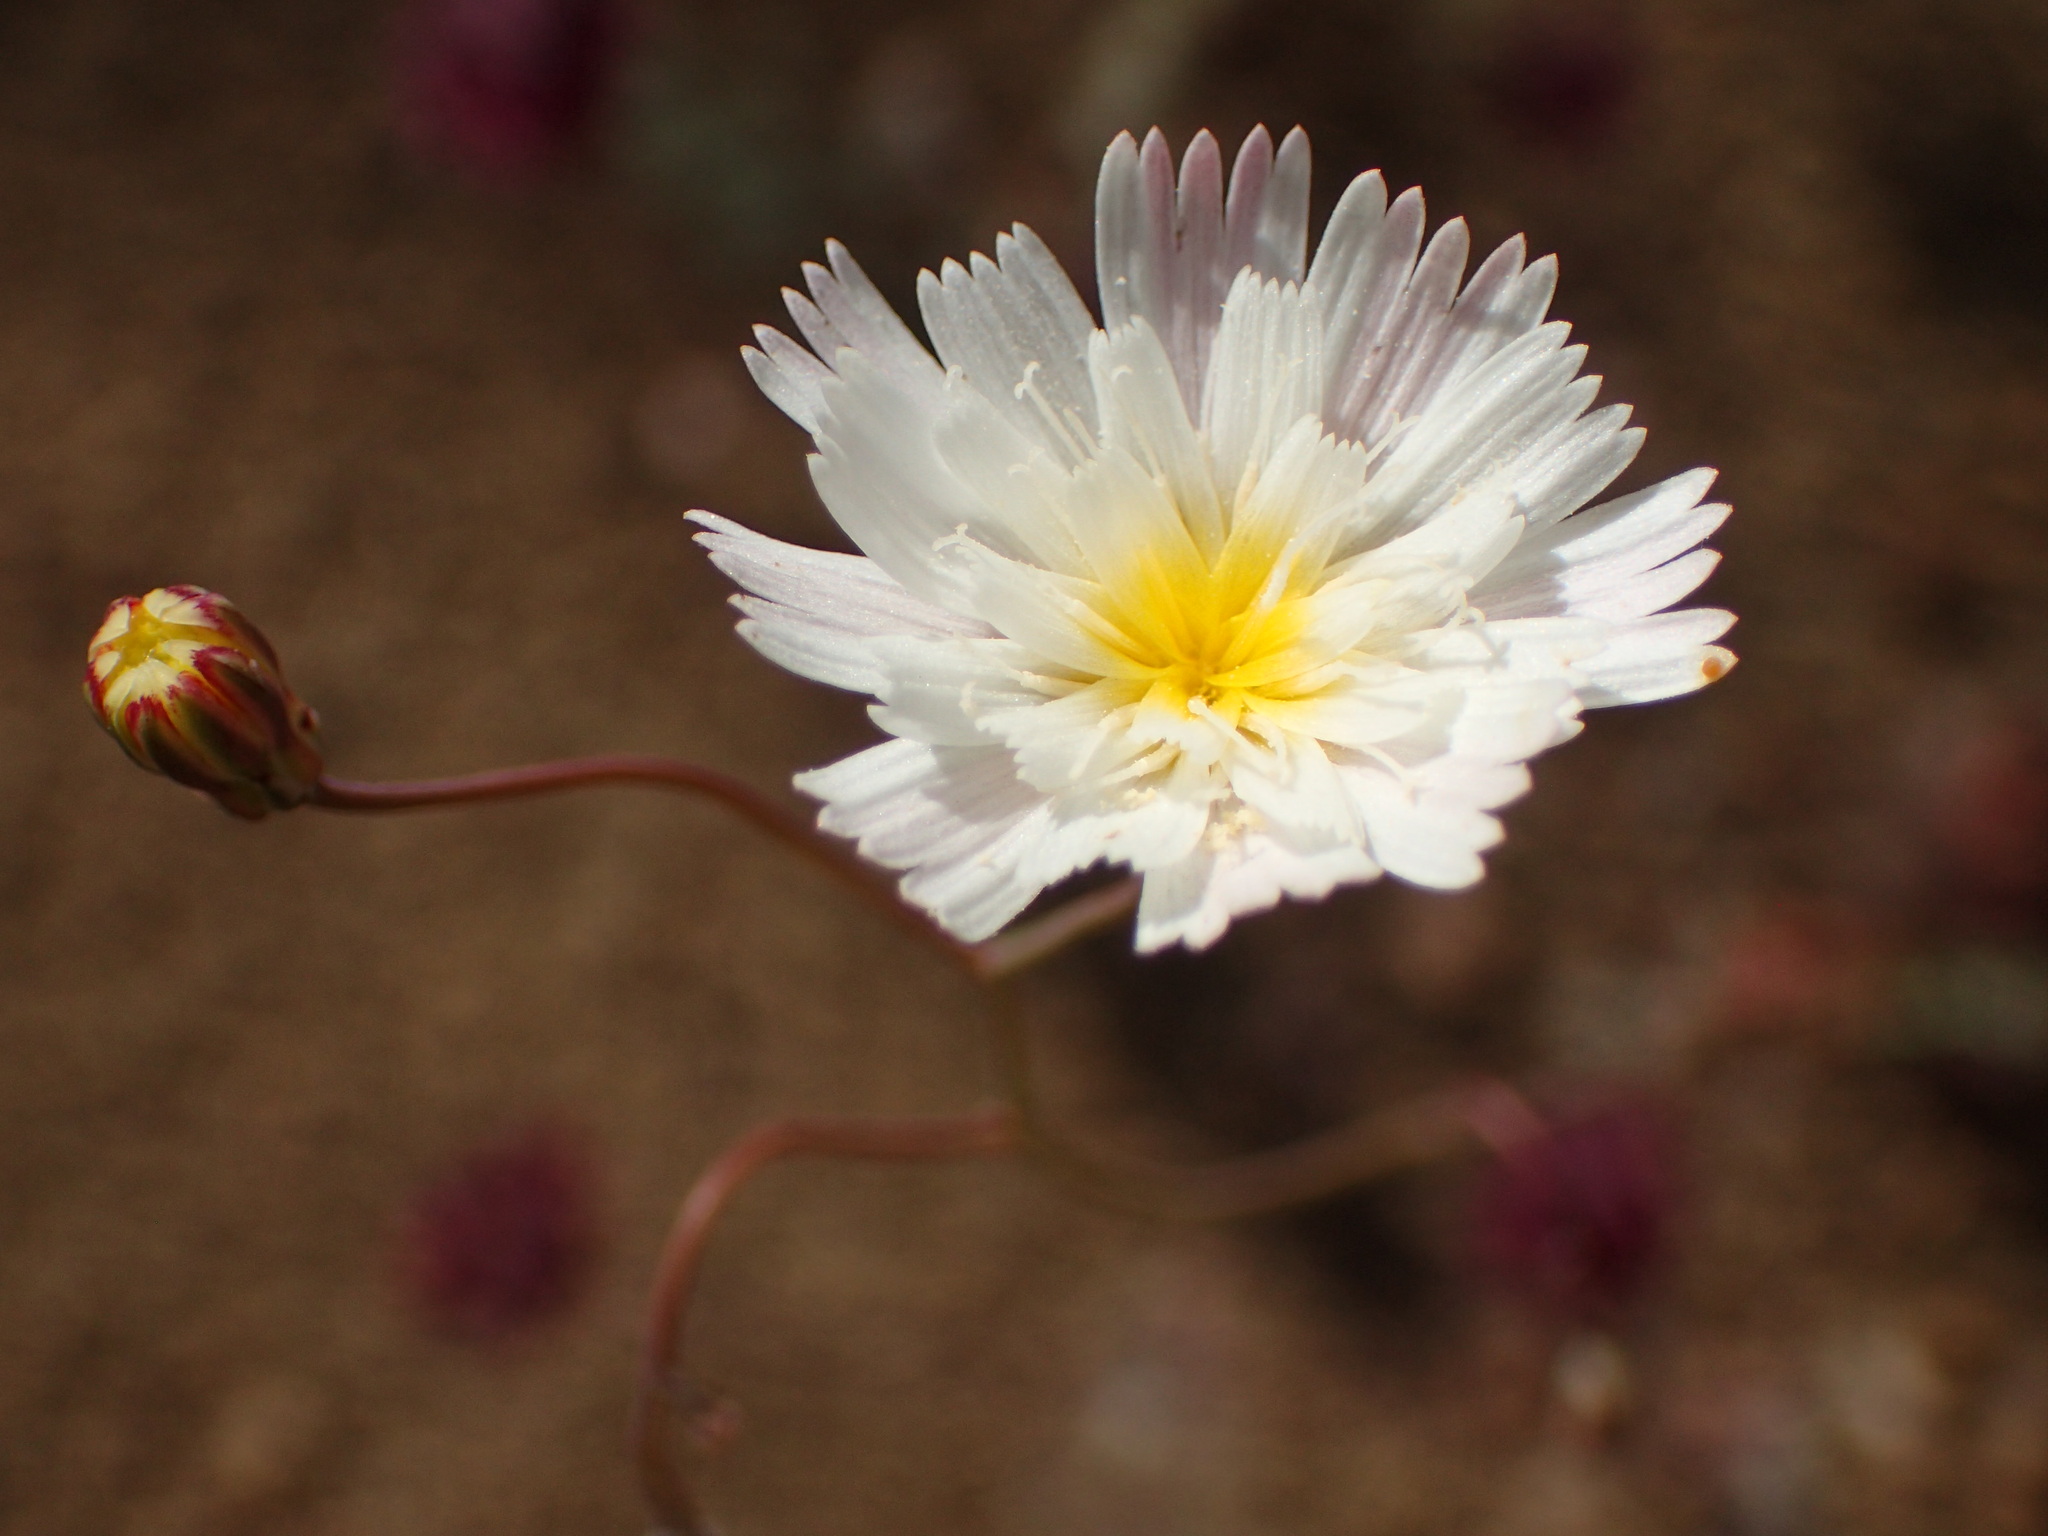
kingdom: Plantae
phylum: Tracheophyta
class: Magnoliopsida
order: Asterales
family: Asteraceae
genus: Malacothrix
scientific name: Malacothrix floccifera
